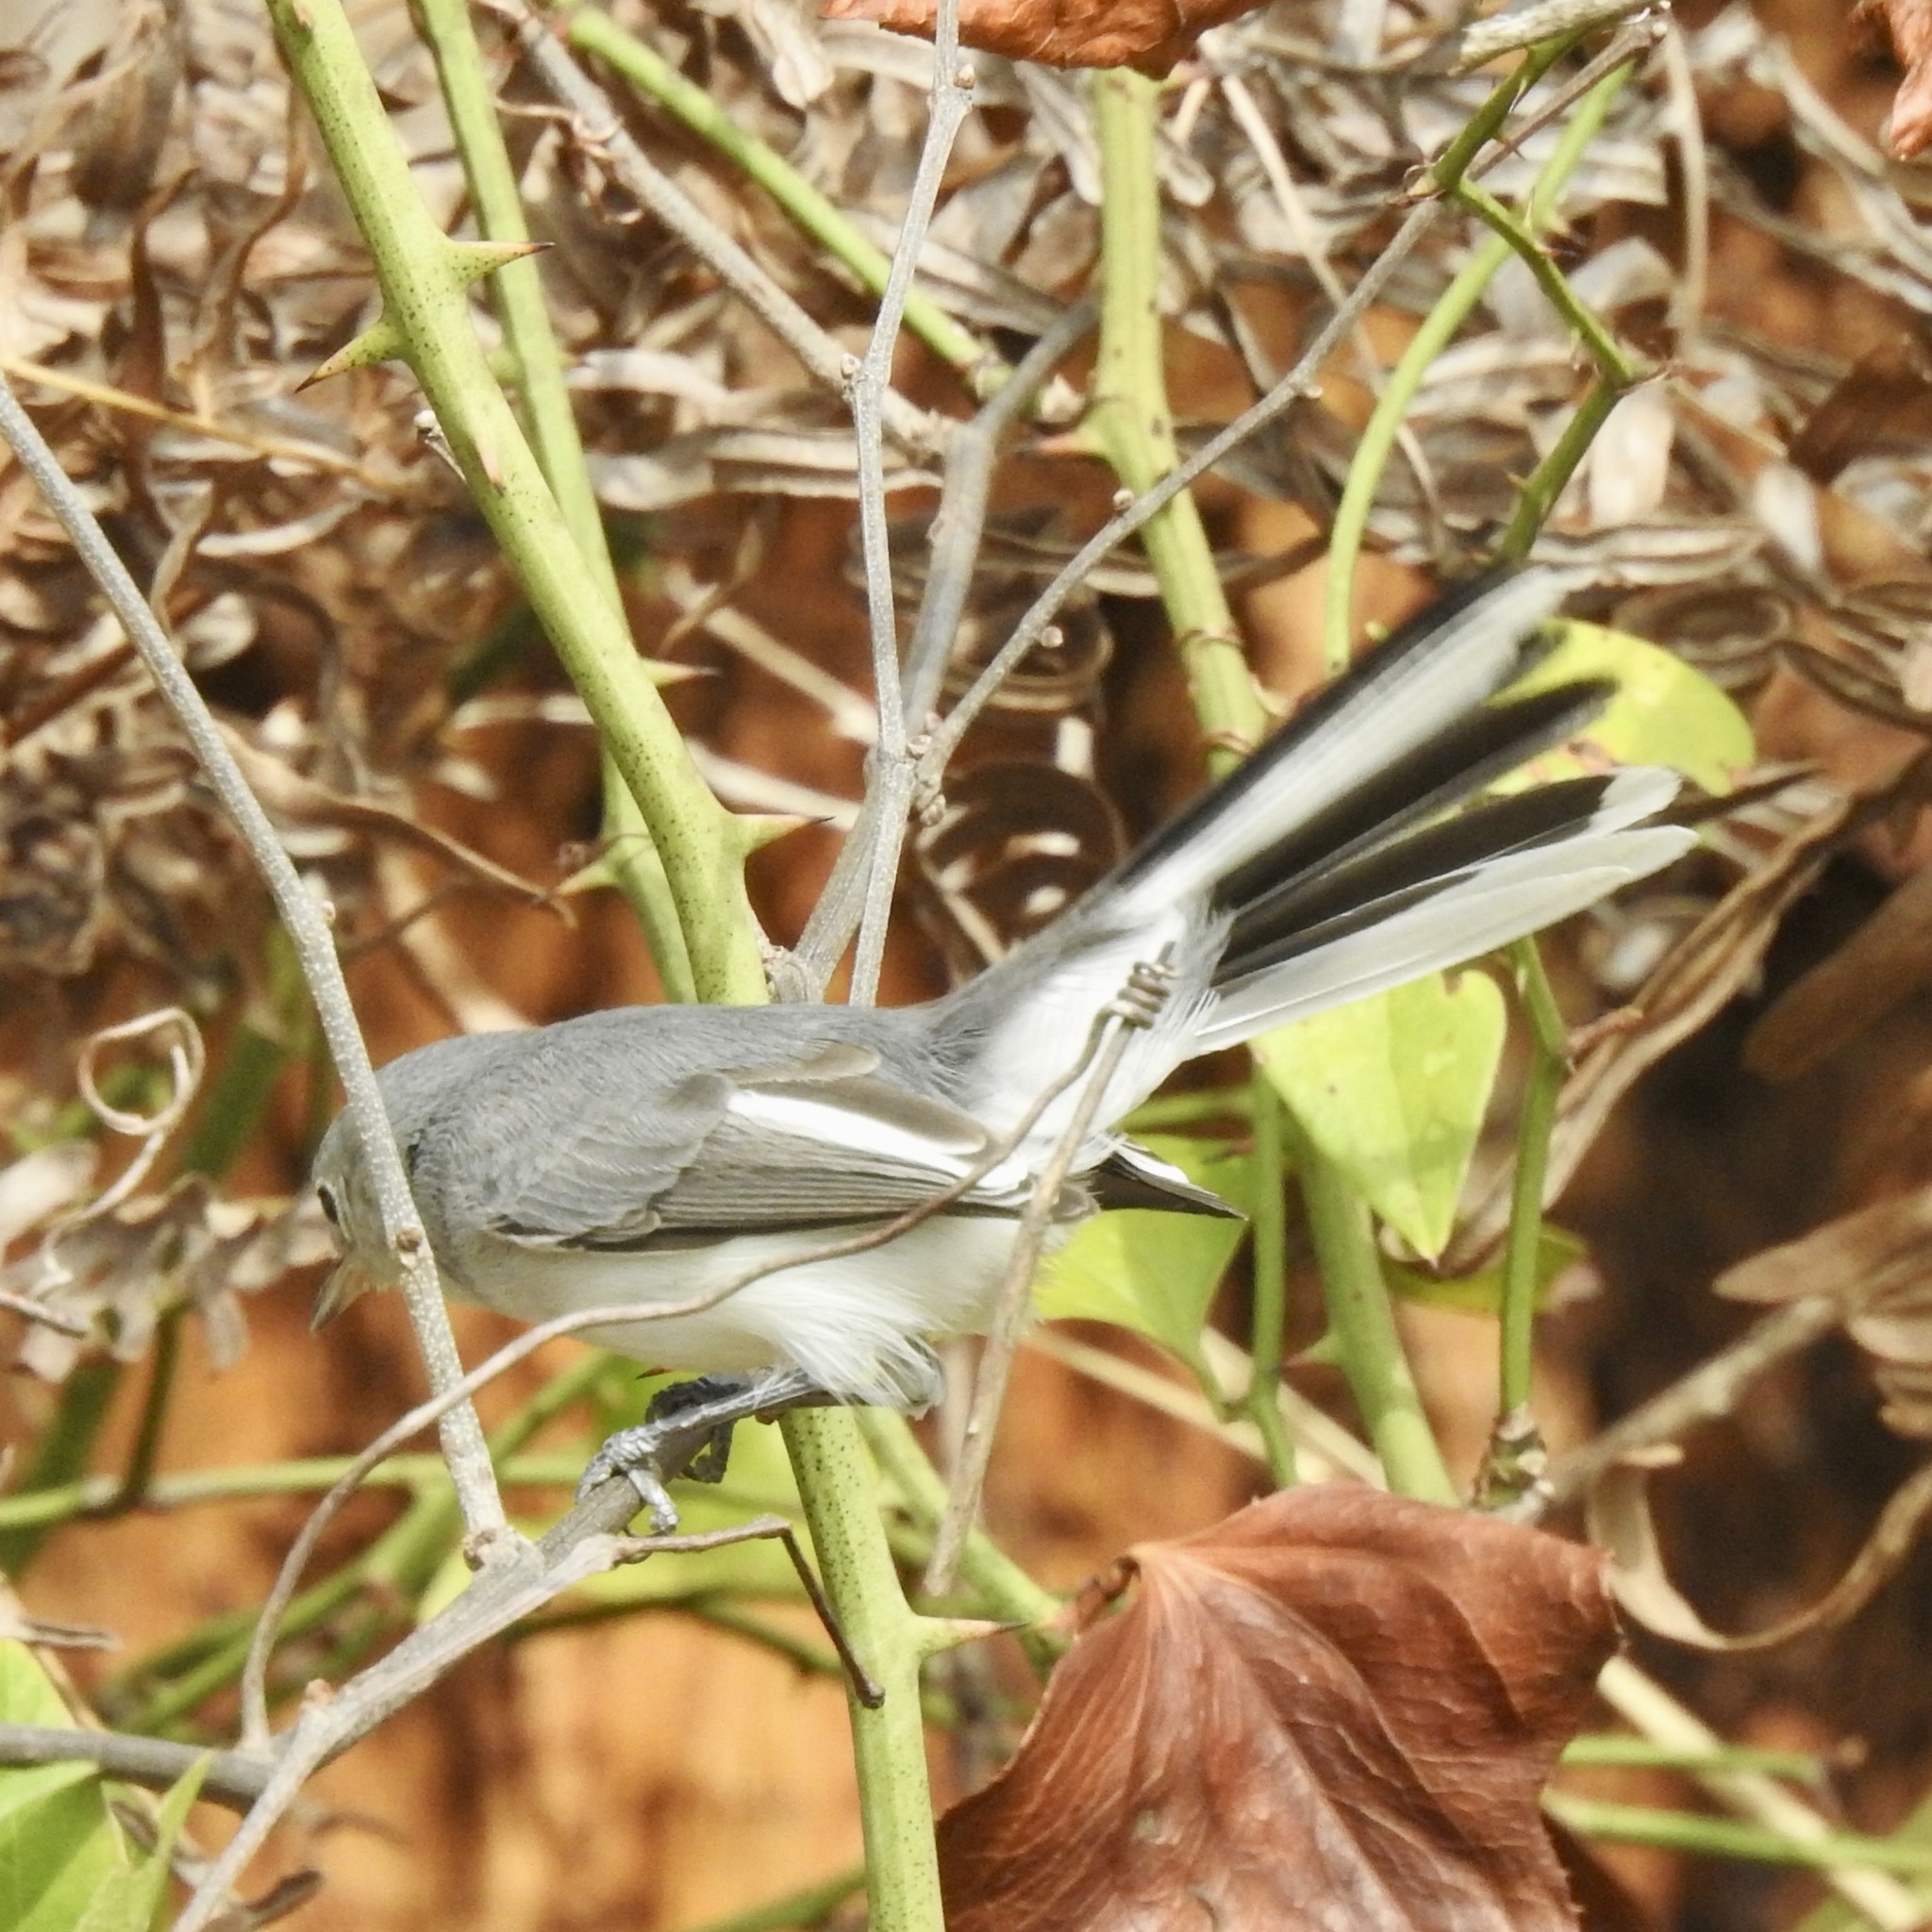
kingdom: Animalia
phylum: Chordata
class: Aves
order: Passeriformes
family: Polioptilidae
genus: Polioptila
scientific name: Polioptila caerulea
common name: Blue-gray gnatcatcher
